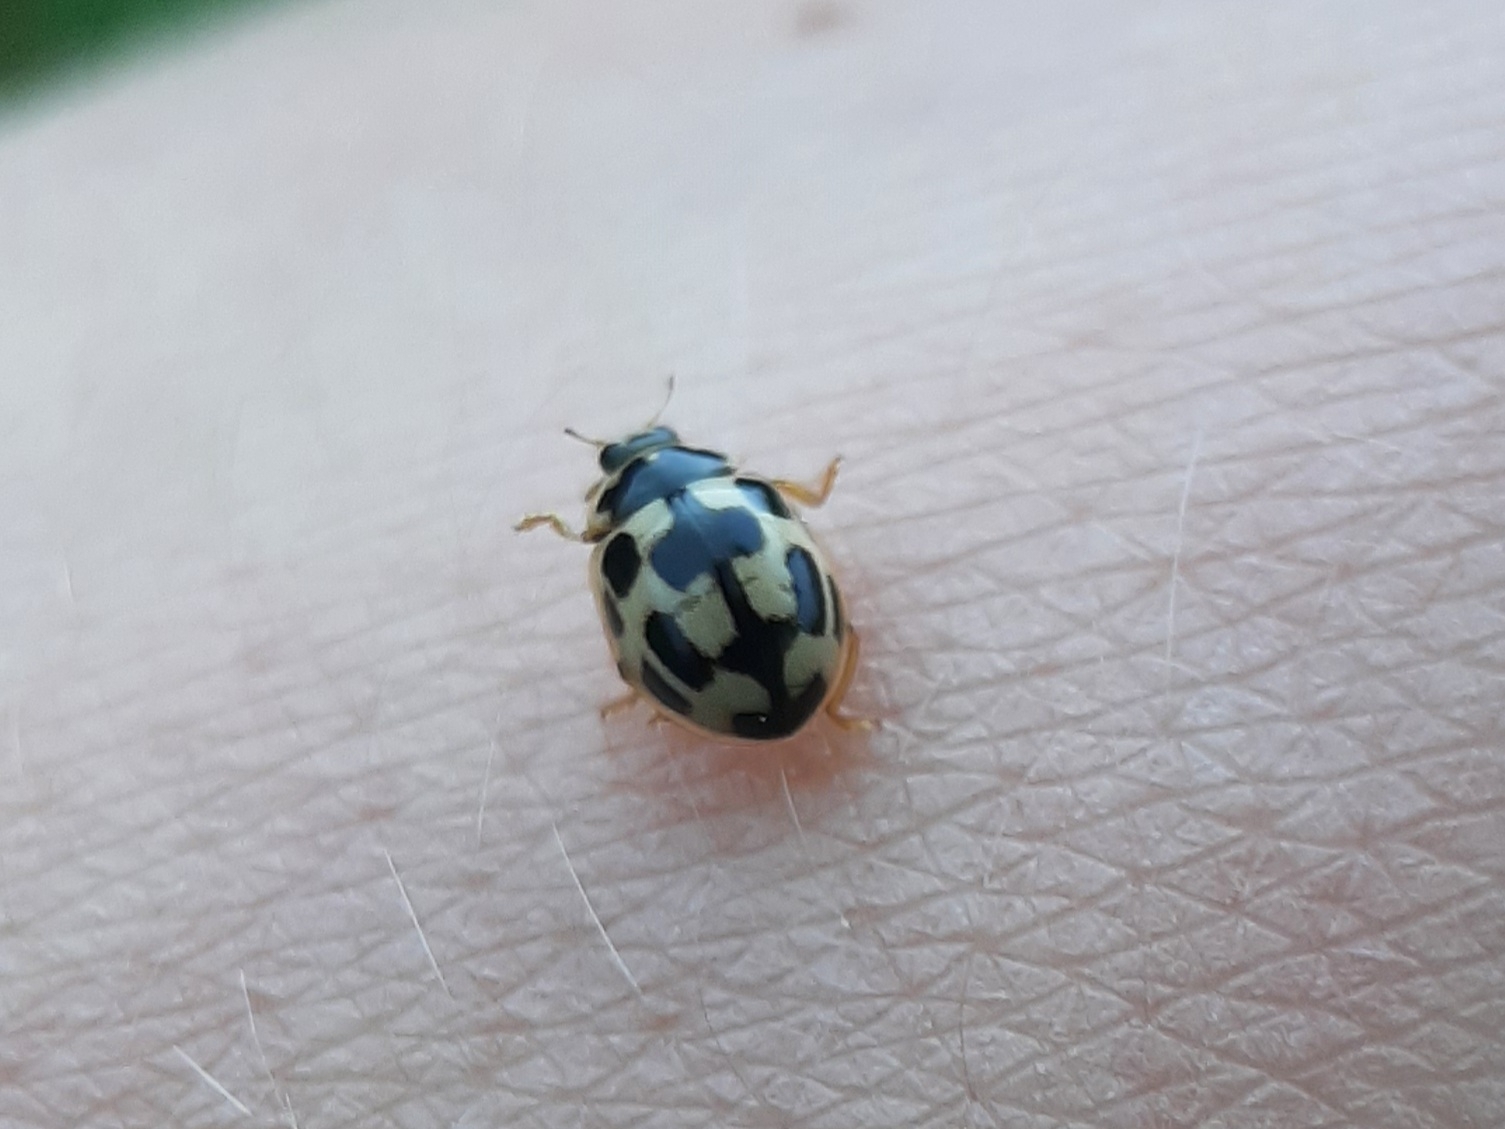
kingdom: Animalia
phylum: Arthropoda
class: Insecta
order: Coleoptera
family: Coccinellidae
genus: Propylaea
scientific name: Propylaea quatuordecimpunctata
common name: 14-spotted ladybird beetle
